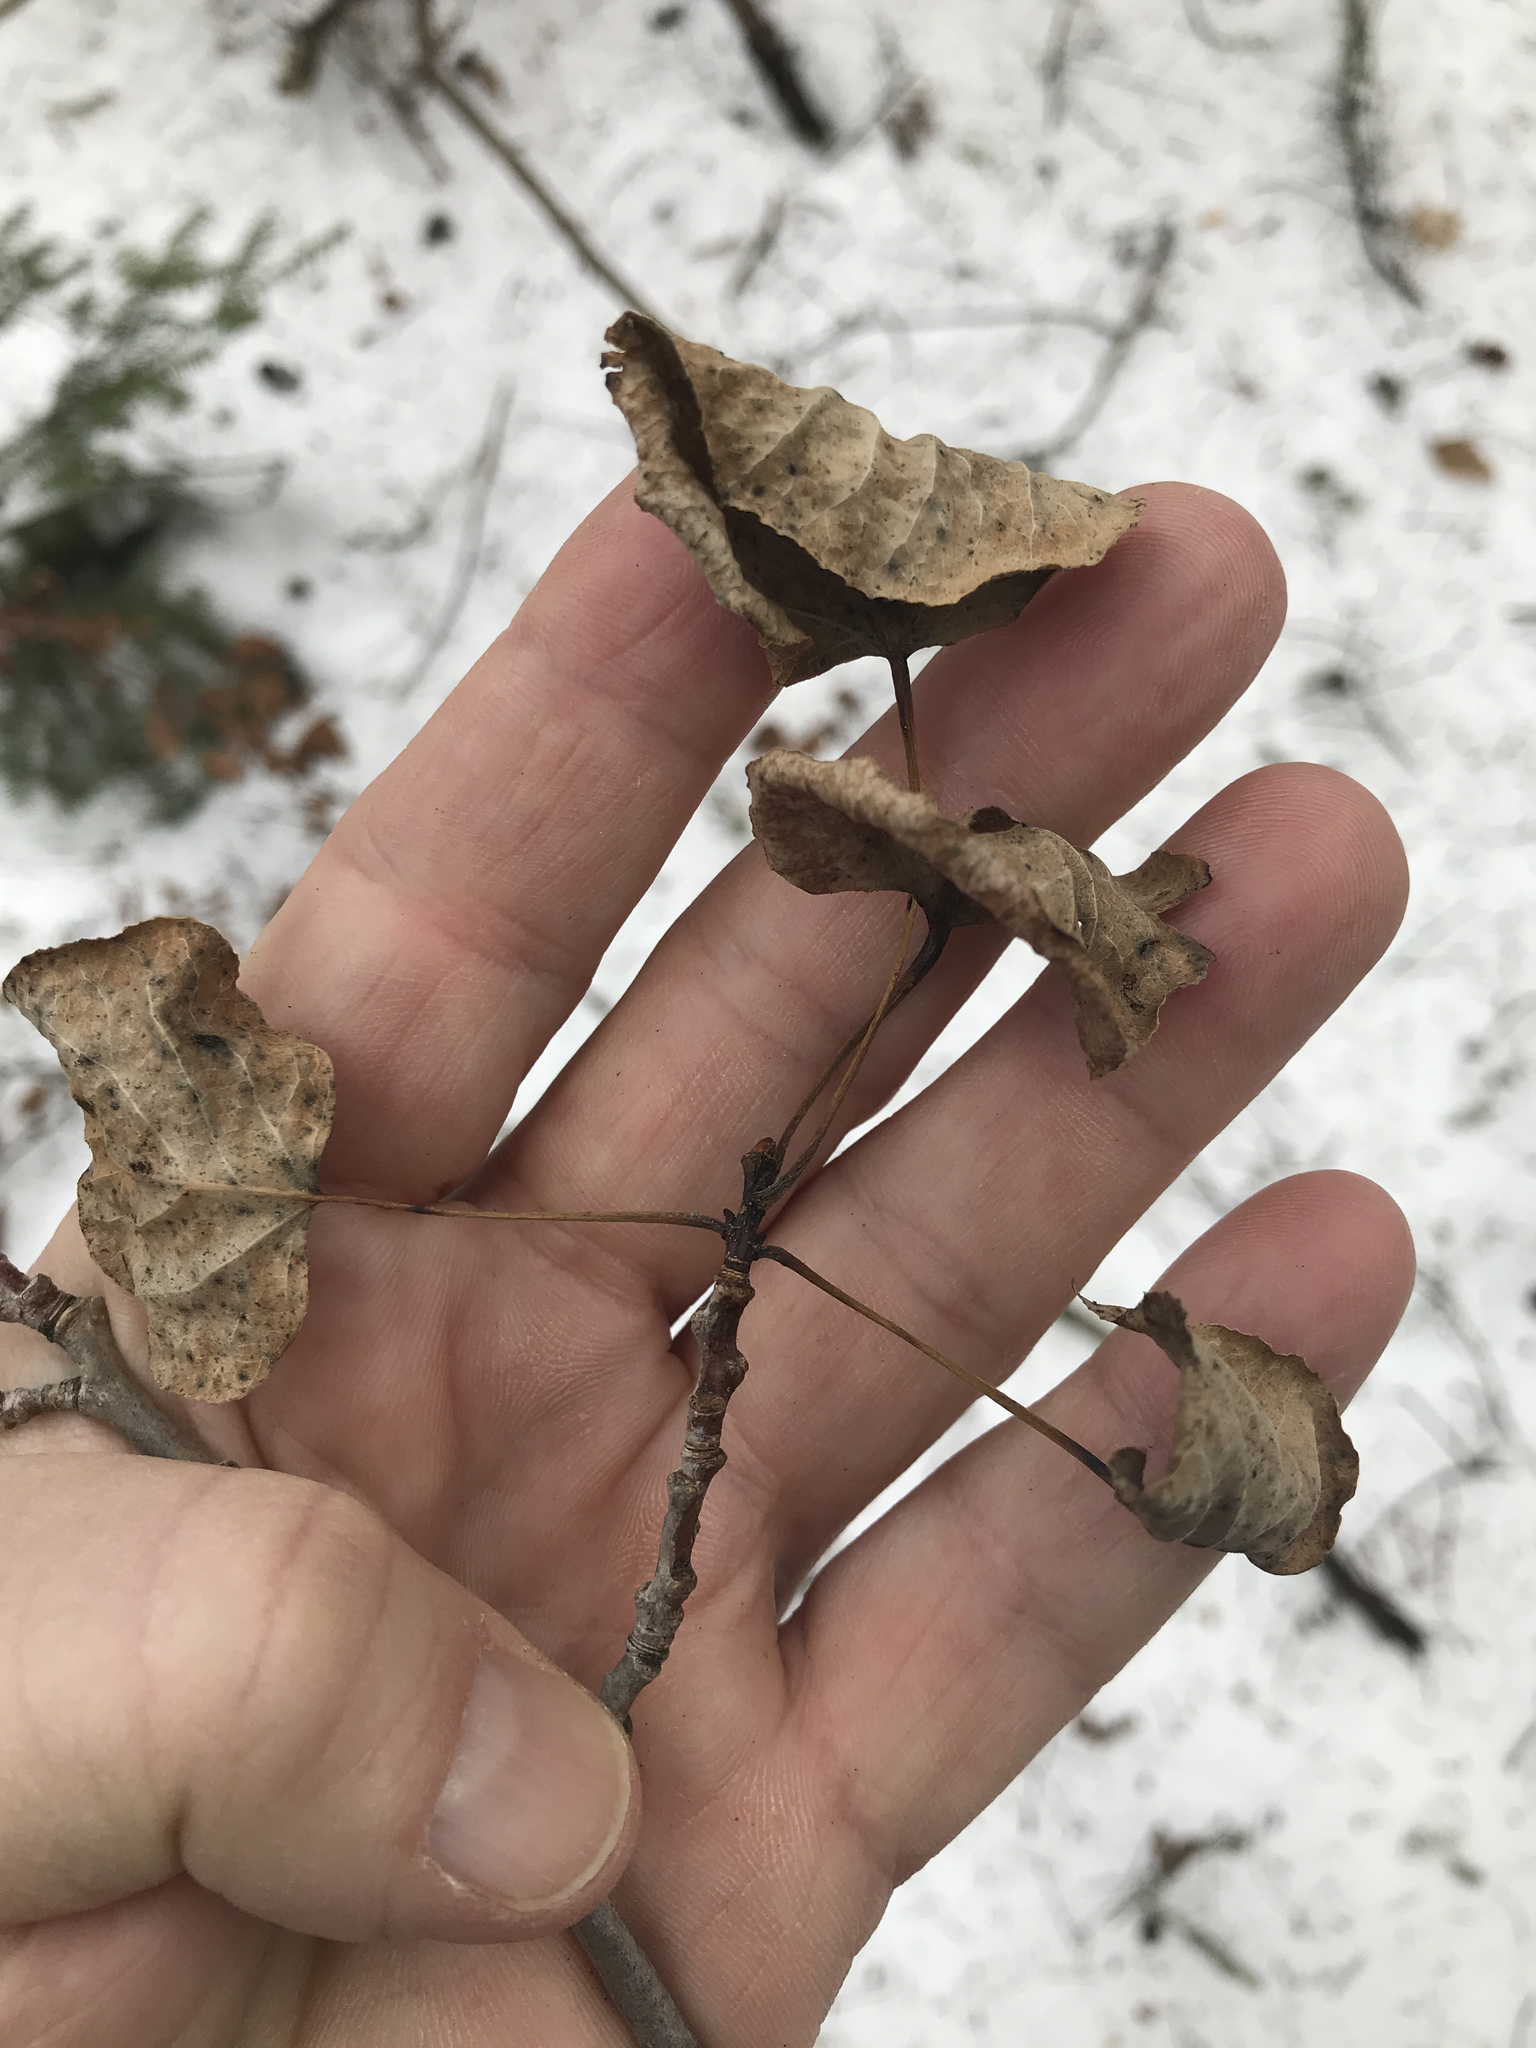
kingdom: Plantae
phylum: Tracheophyta
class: Magnoliopsida
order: Malpighiales
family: Salicaceae
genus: Populus
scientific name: Populus tremuloides
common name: Quaking aspen
